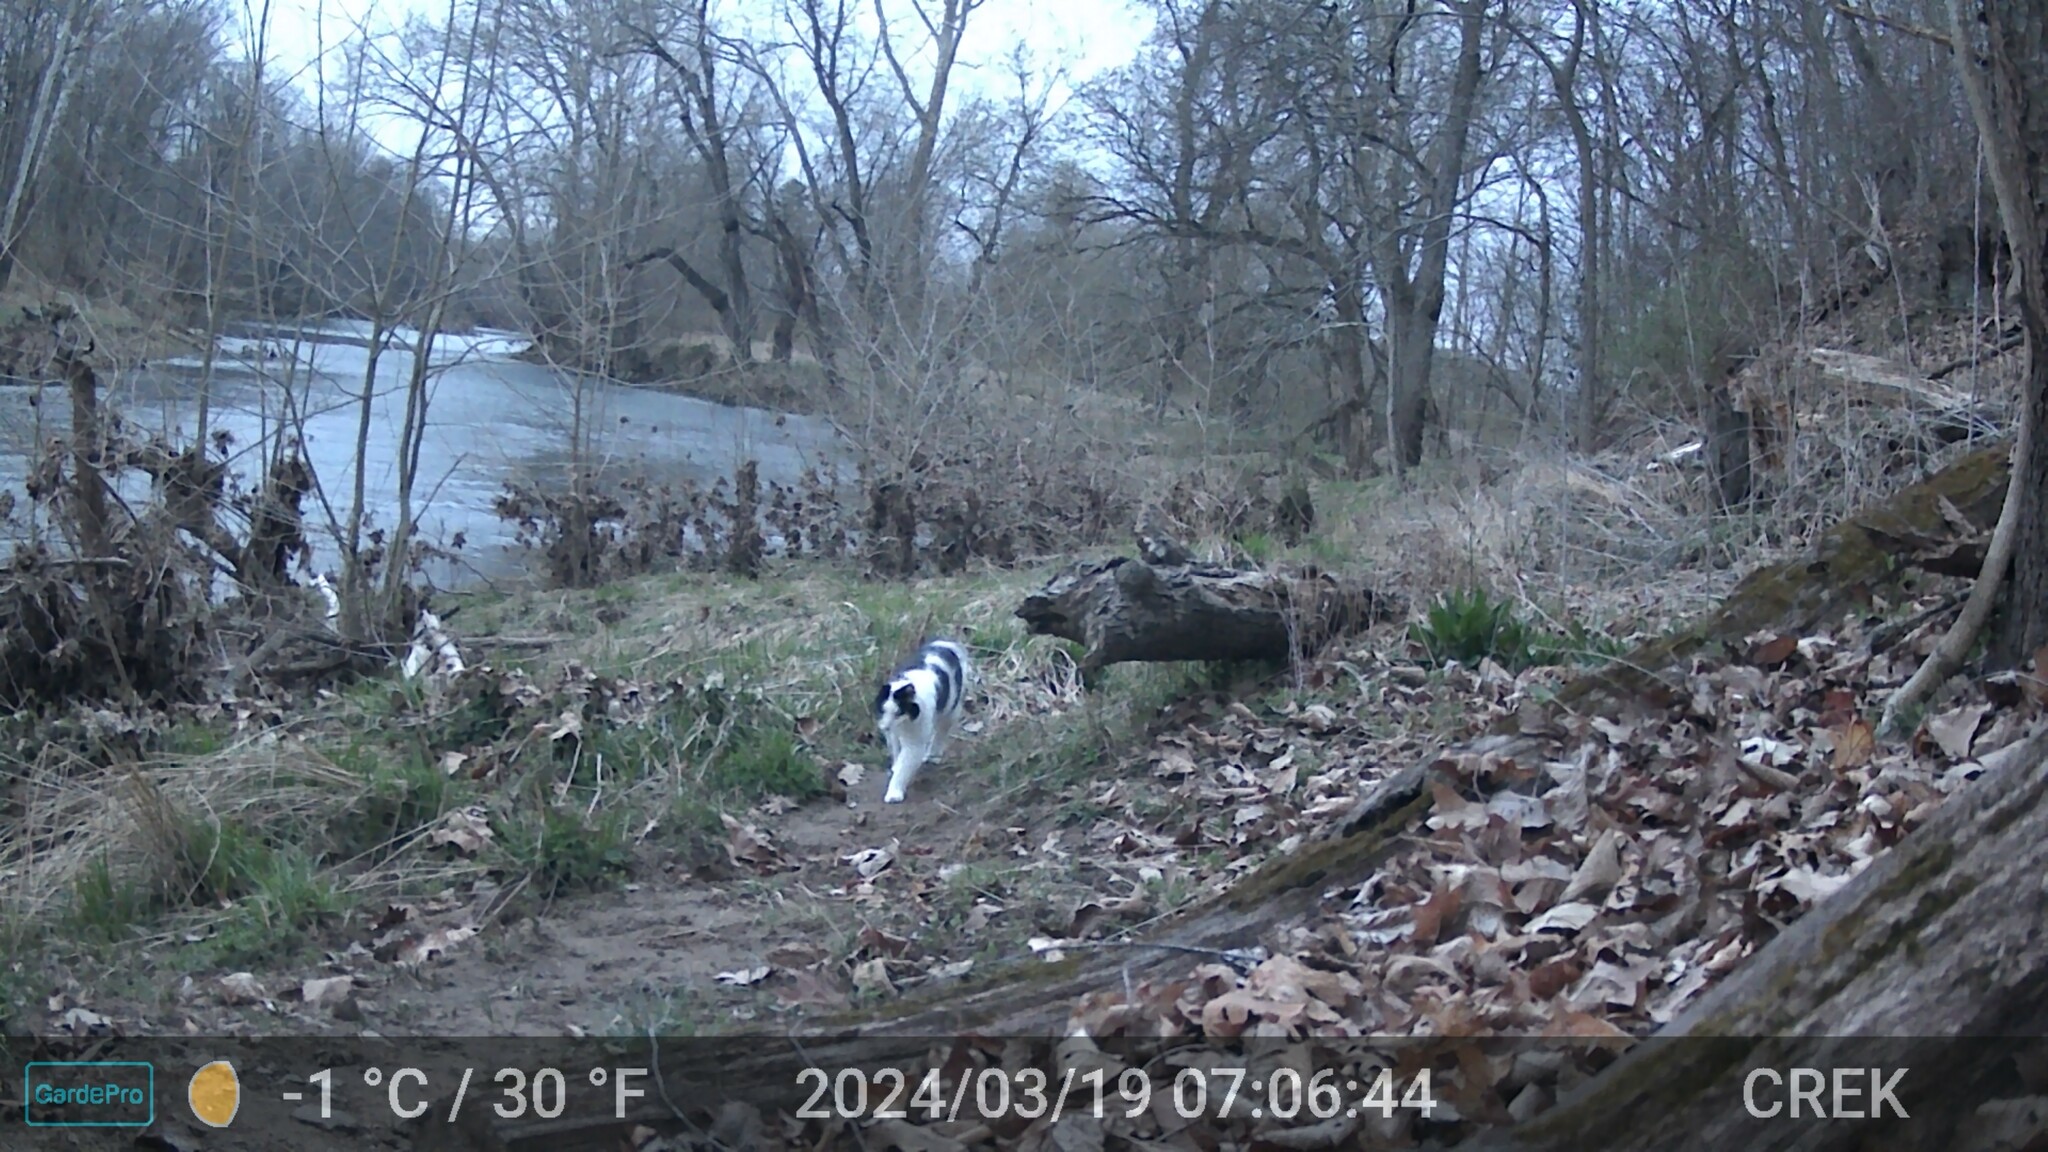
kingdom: Animalia
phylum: Chordata
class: Mammalia
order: Carnivora
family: Felidae
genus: Felis
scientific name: Felis catus
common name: Domestic cat
